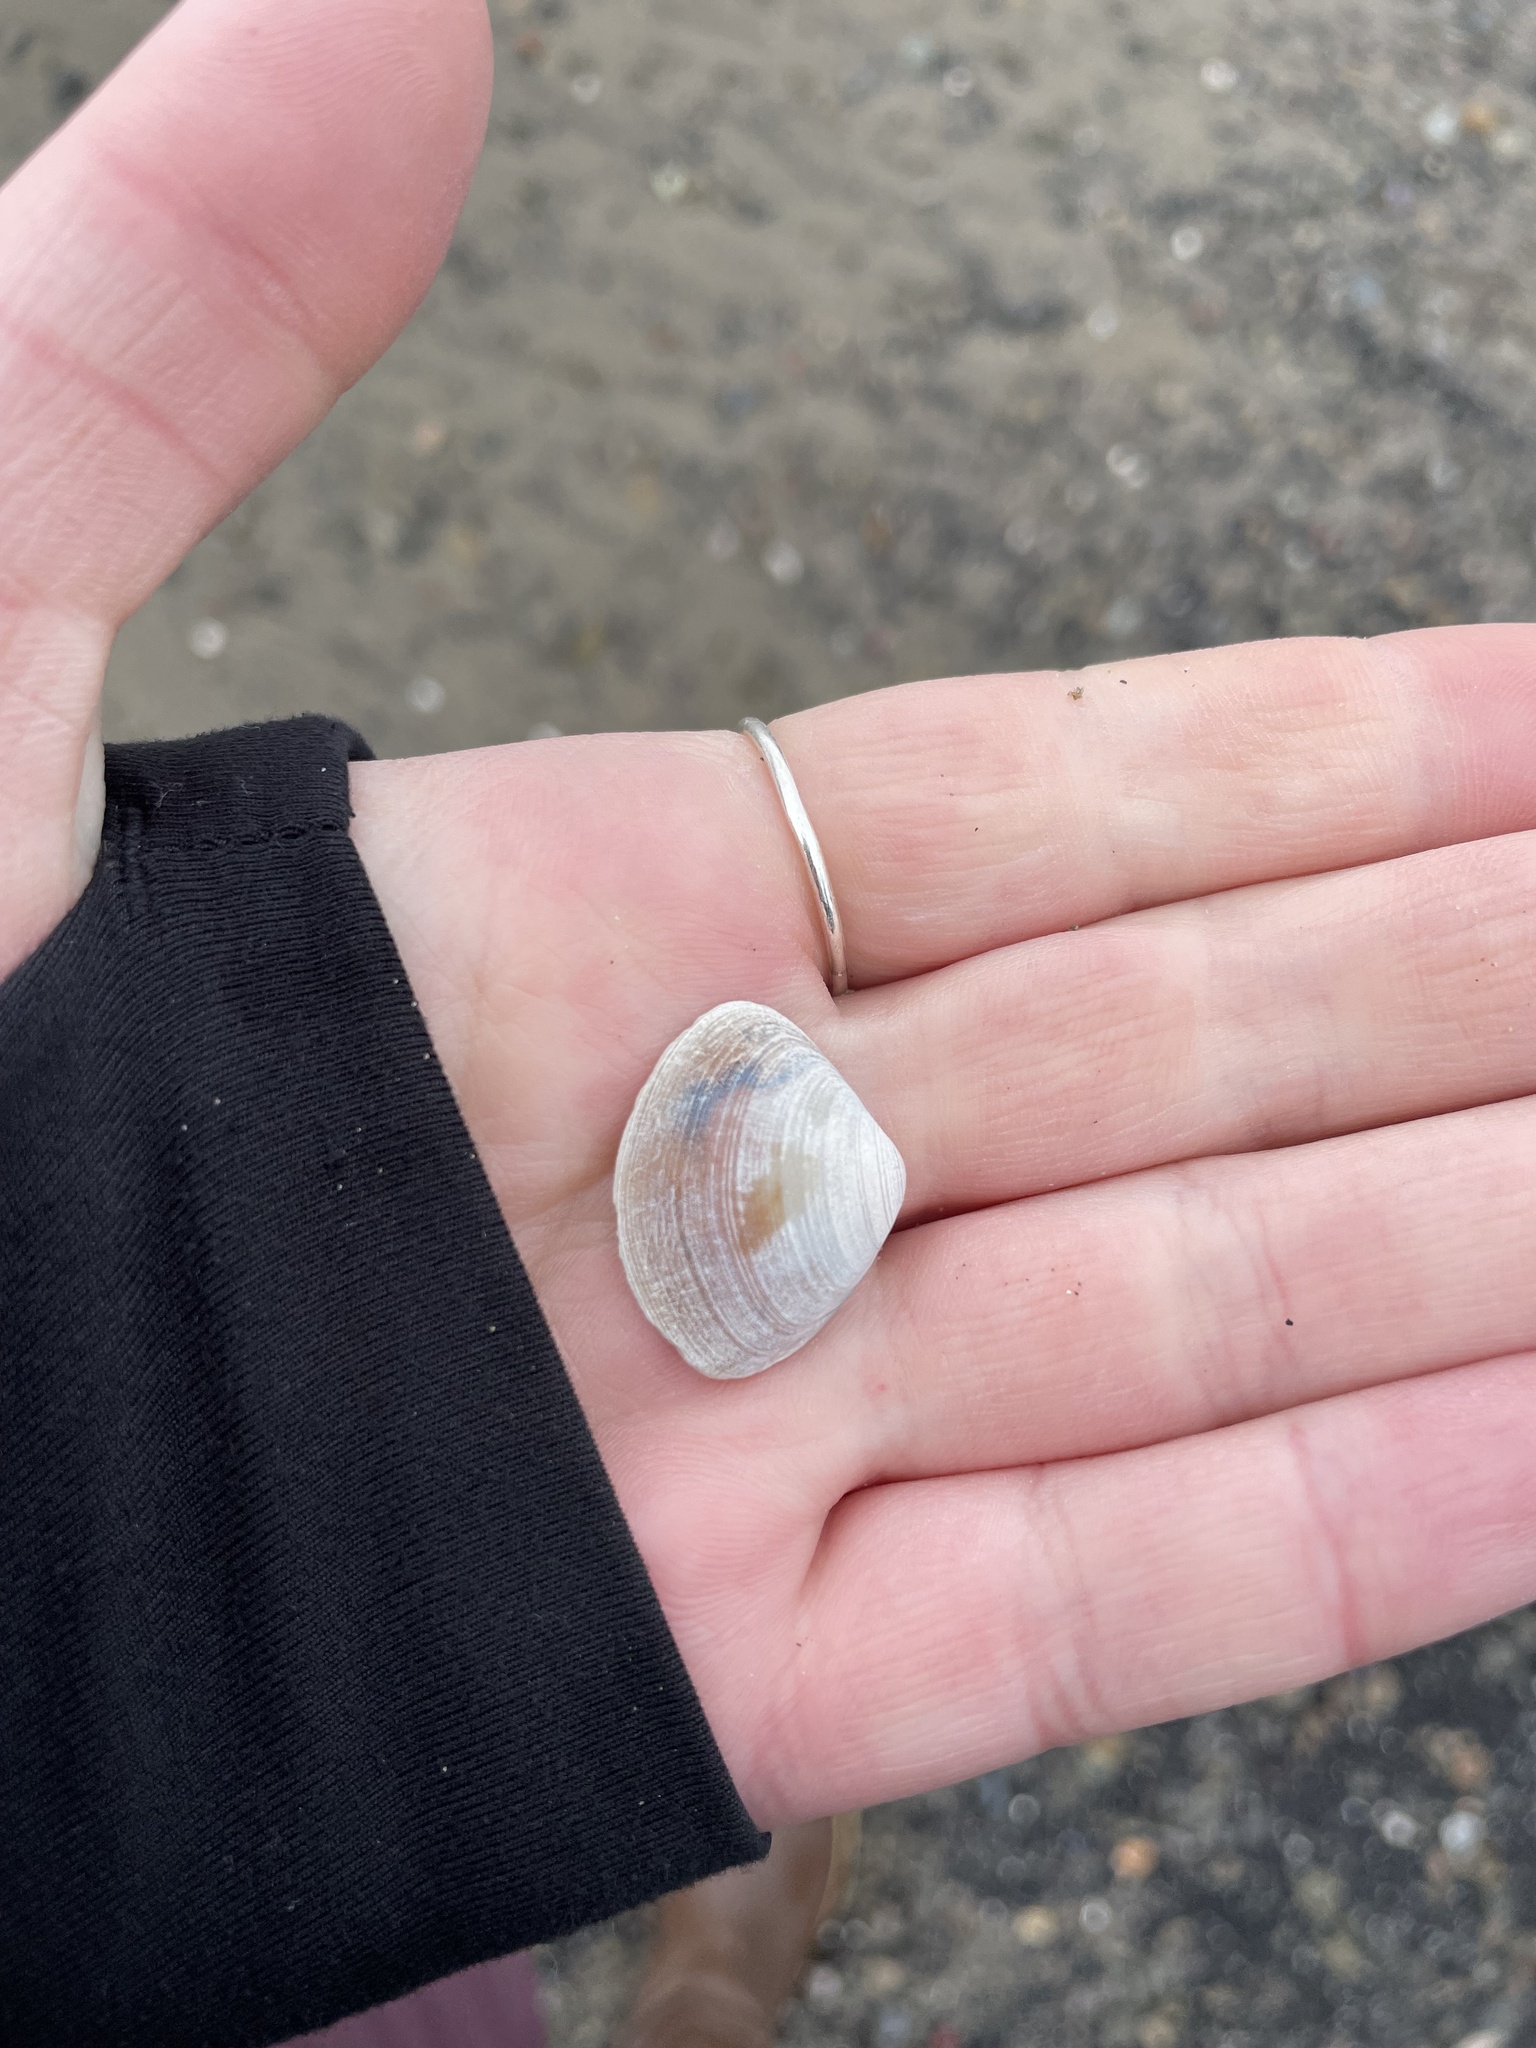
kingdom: Animalia
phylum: Mollusca
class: Bivalvia
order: Venerida
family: Mactridae
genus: Spisula
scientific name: Spisula solidissima
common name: Atlantic surf clam
